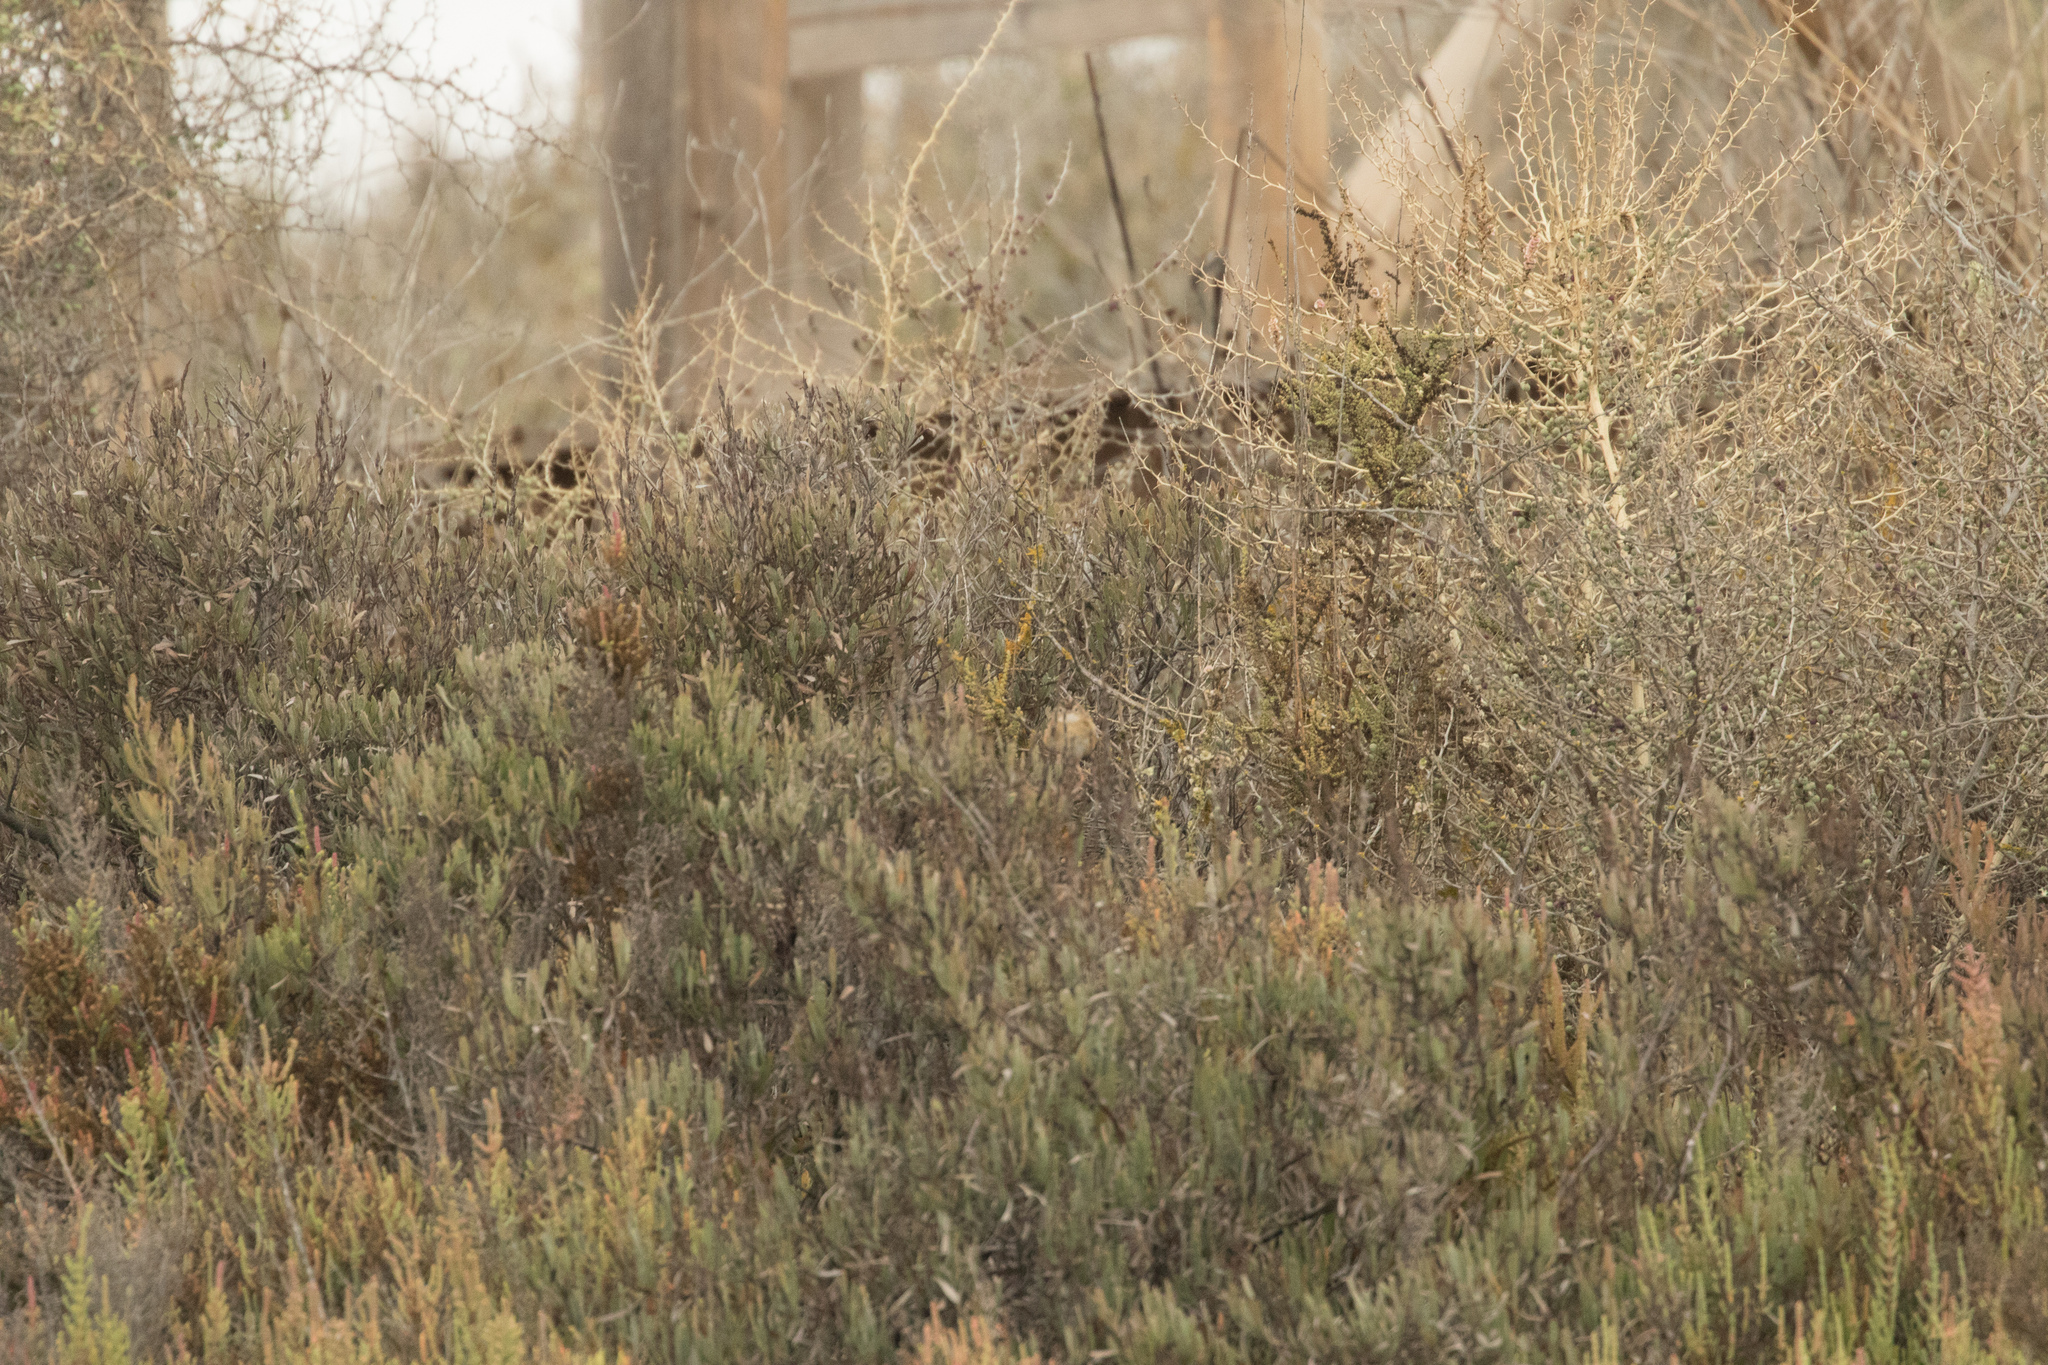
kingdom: Animalia
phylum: Chordata
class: Aves
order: Passeriformes
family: Cisticolidae
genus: Cisticola
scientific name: Cisticola juncidis
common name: Zitting cisticola
